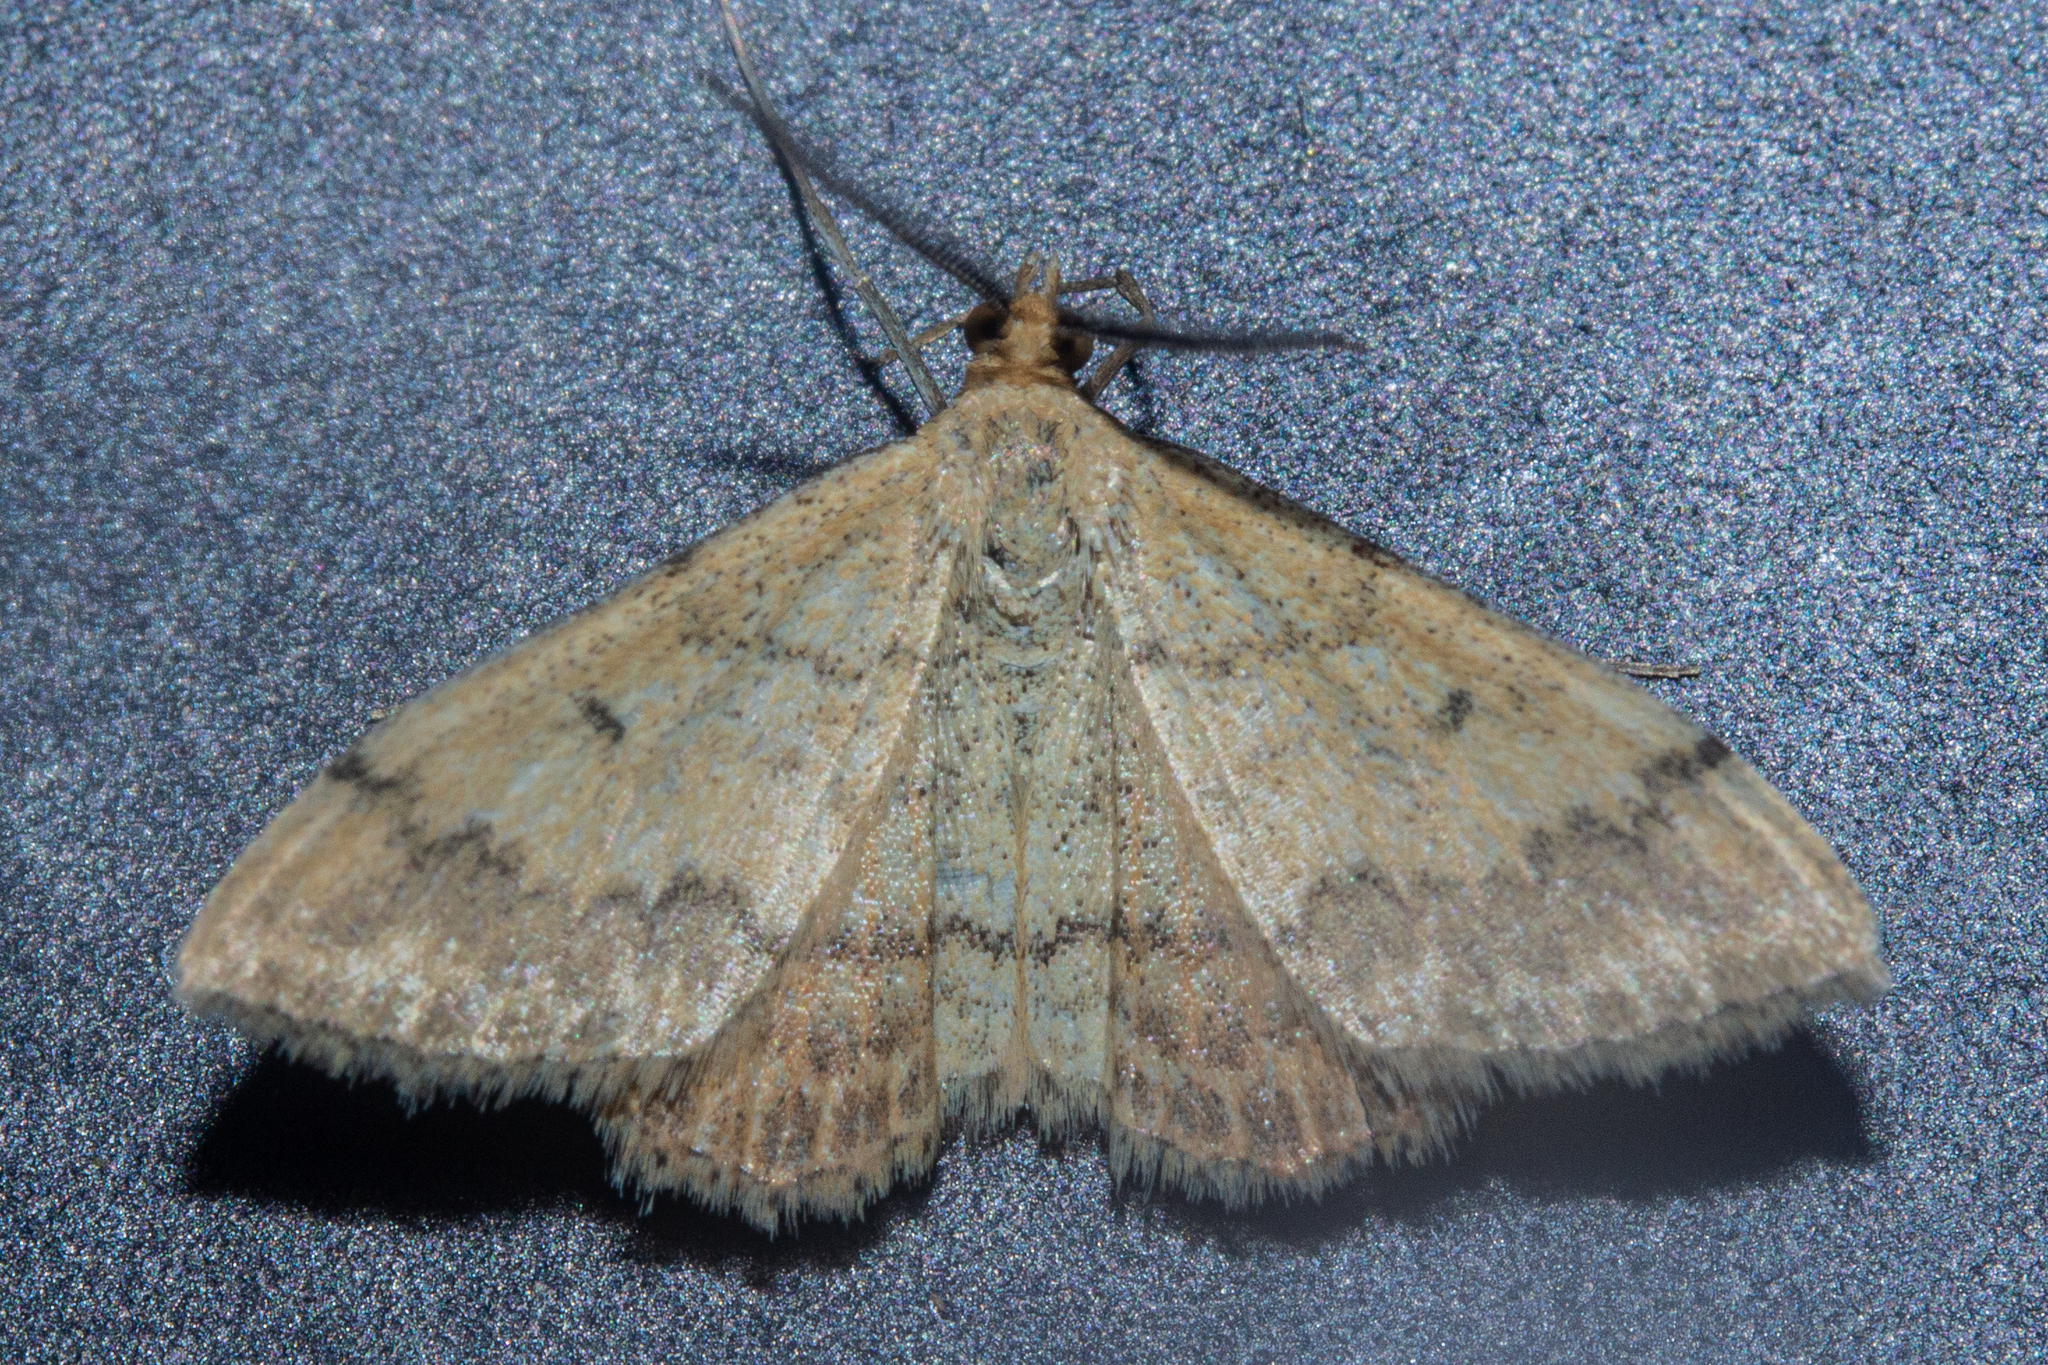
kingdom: Animalia
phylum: Arthropoda
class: Insecta
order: Lepidoptera
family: Geometridae
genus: Scopula
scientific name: Scopula rubraria
